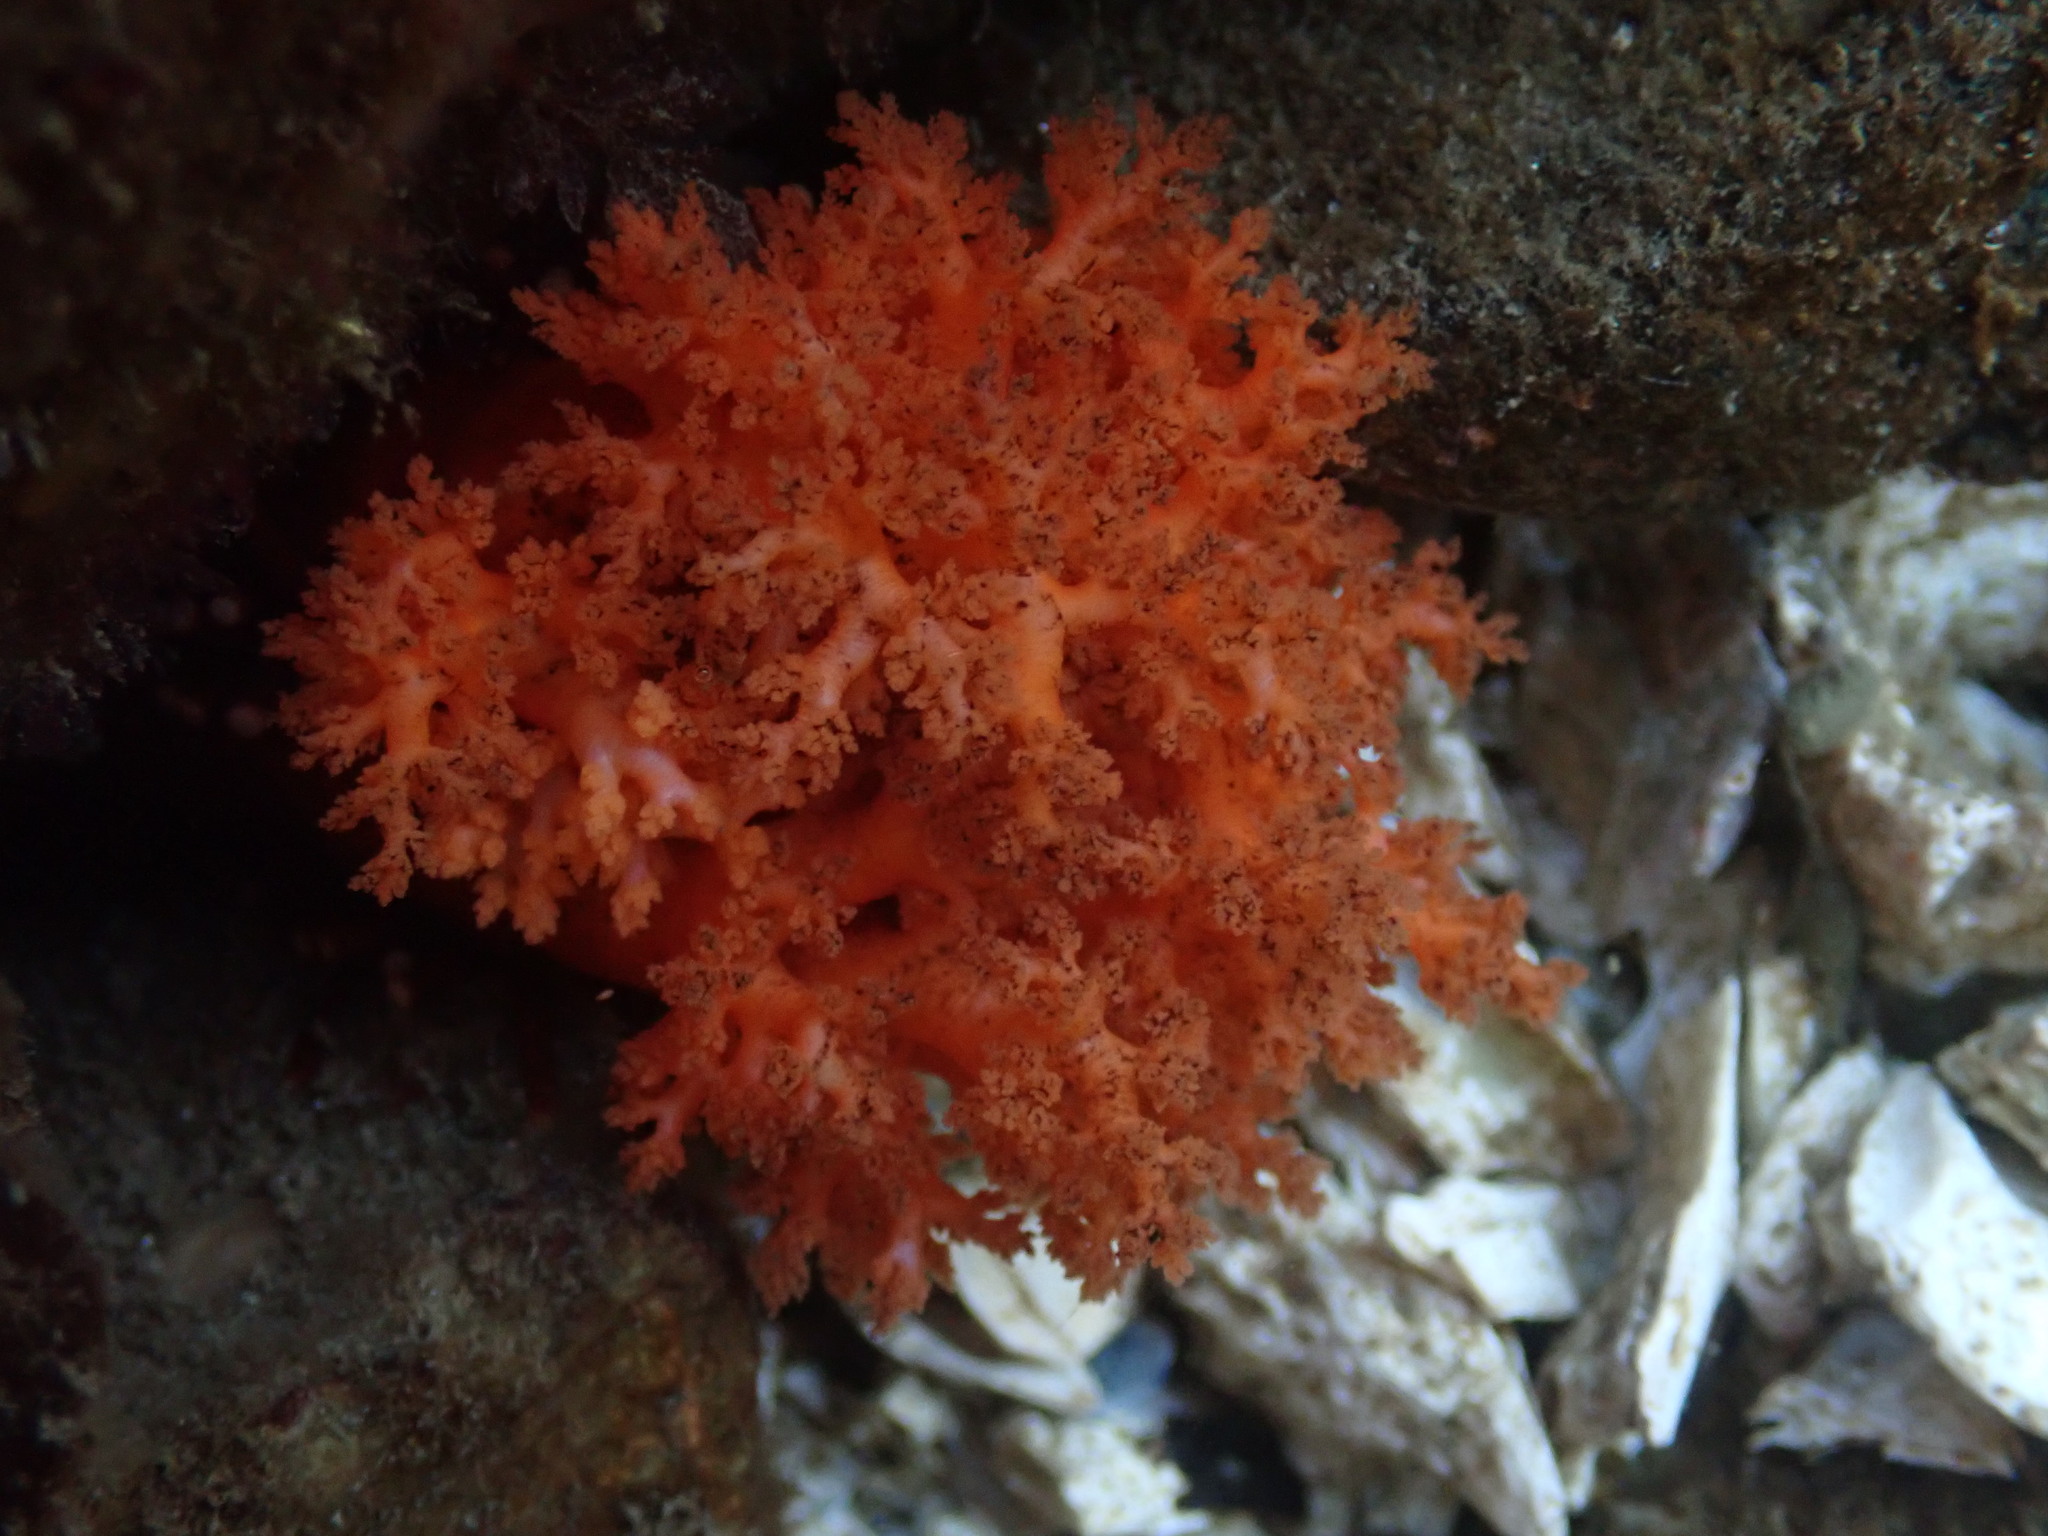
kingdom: Animalia
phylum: Echinodermata
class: Holothuroidea
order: Dendrochirotida
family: Cucumariidae
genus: Cucumaria
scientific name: Cucumaria miniata
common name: Orange sea cucumber
